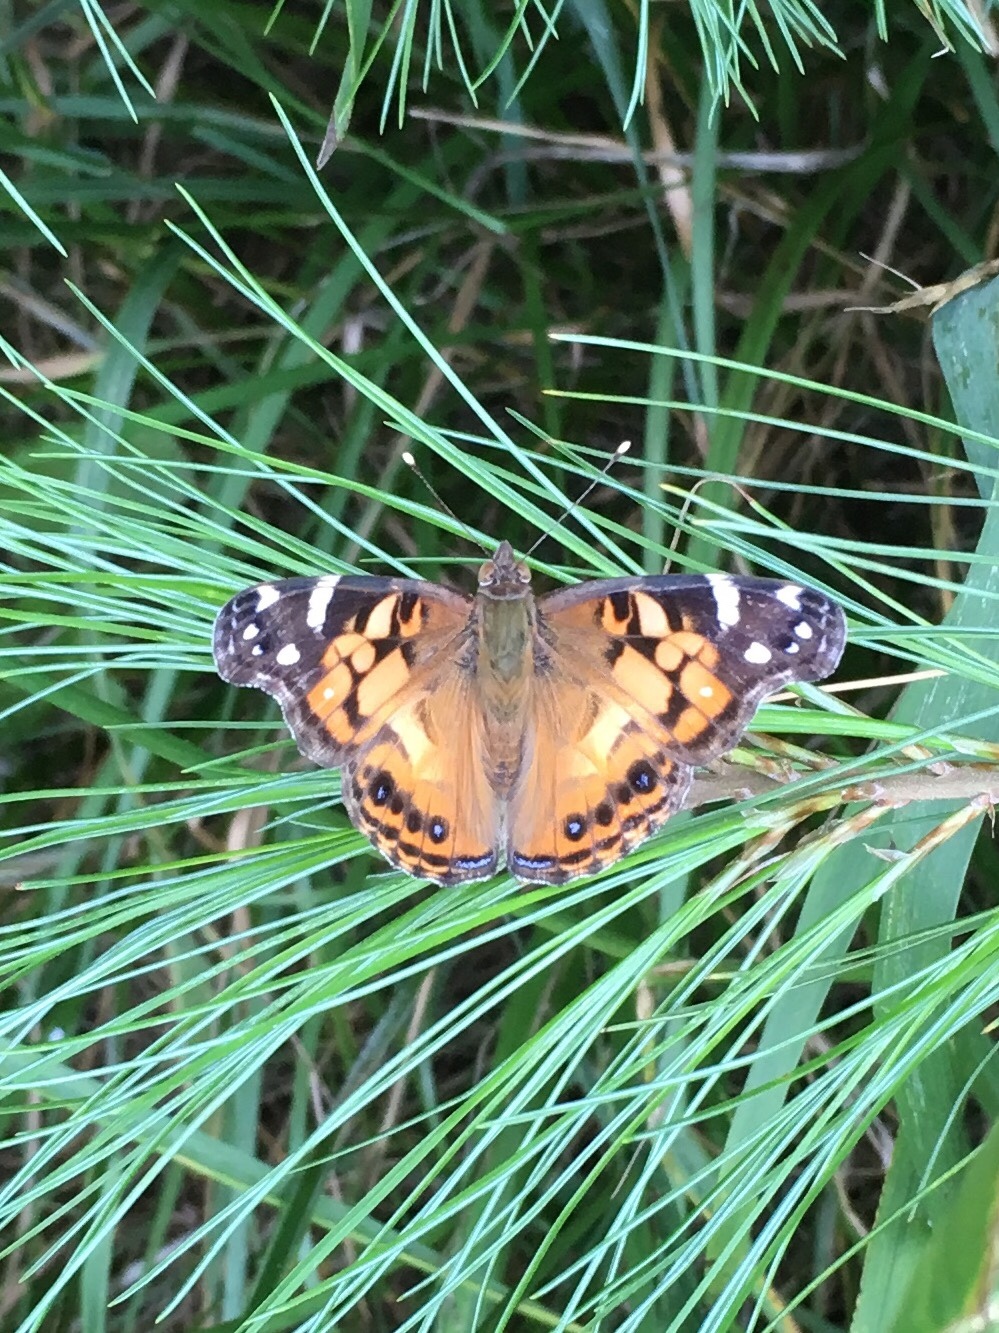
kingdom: Animalia
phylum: Arthropoda
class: Insecta
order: Lepidoptera
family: Nymphalidae
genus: Vanessa
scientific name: Vanessa virginiensis
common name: American lady
